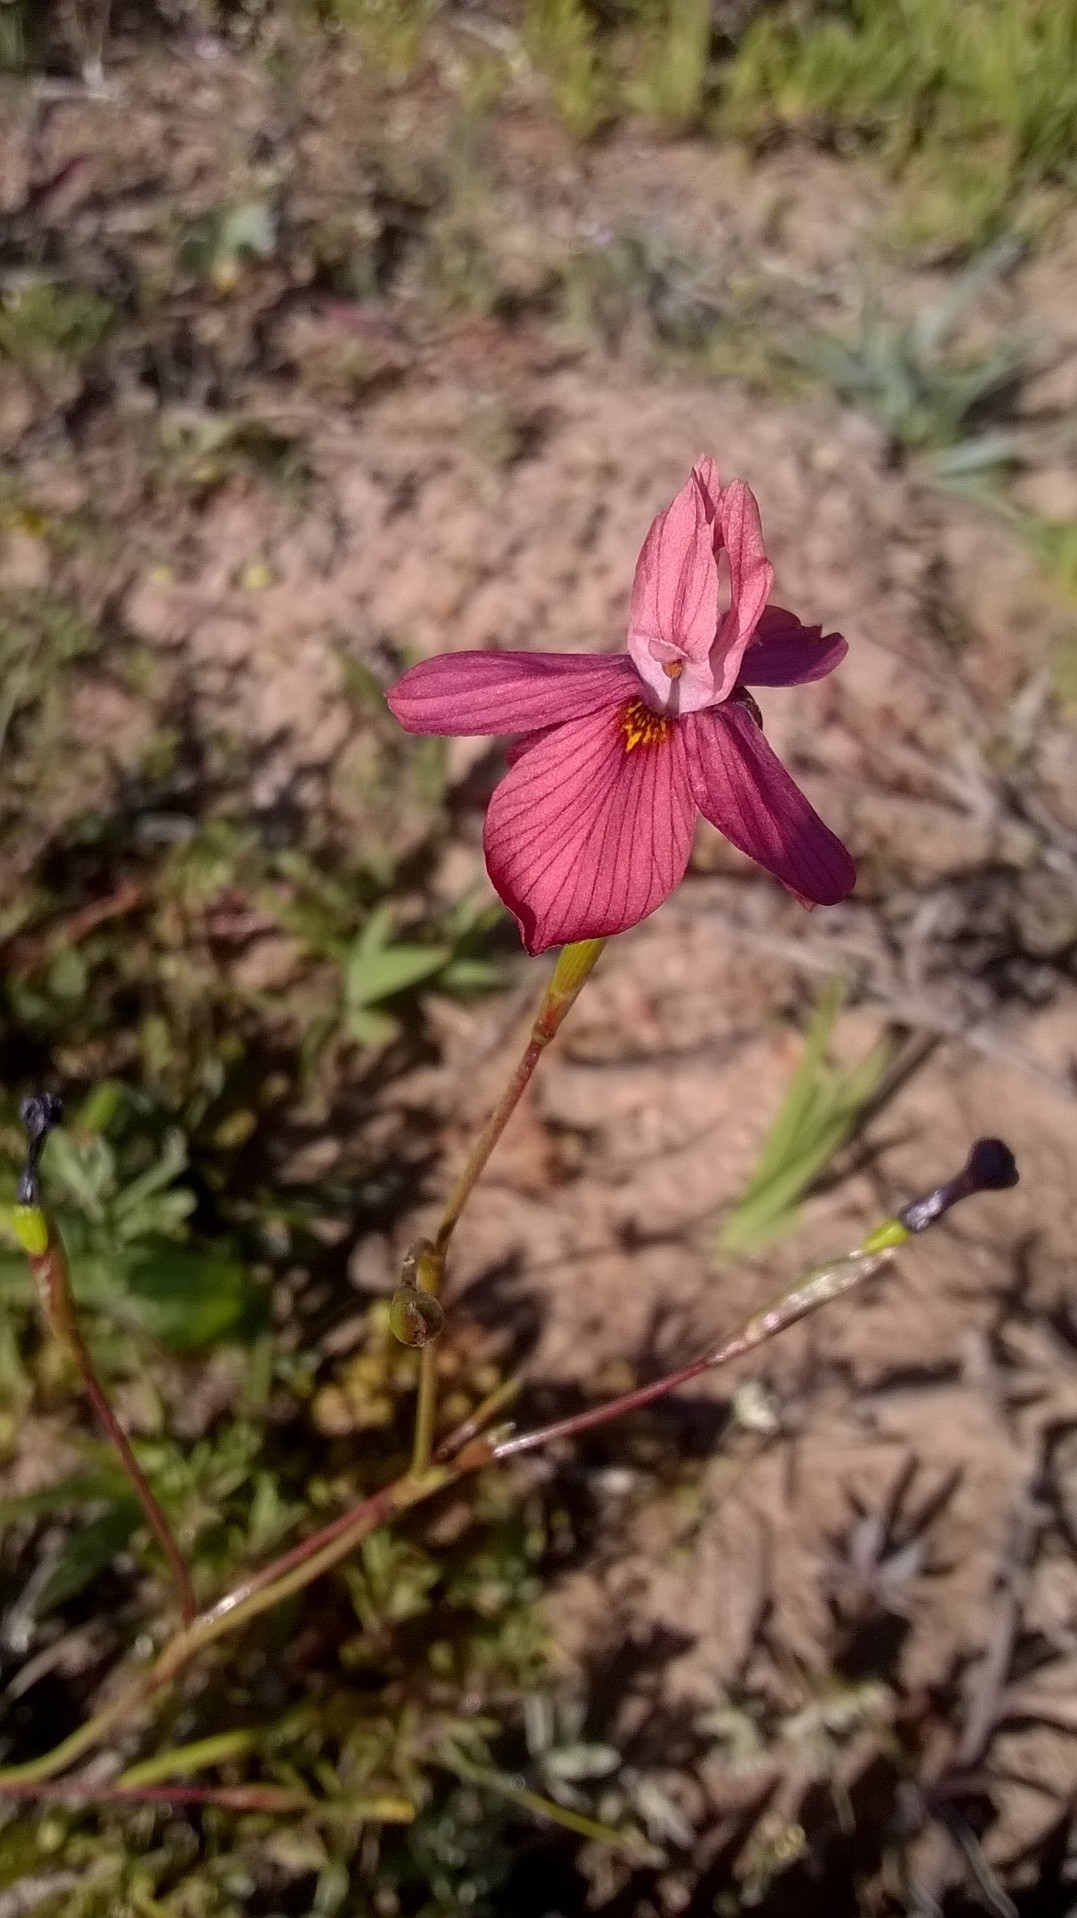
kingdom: Plantae
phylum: Tracheophyta
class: Liliopsida
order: Asparagales
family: Iridaceae
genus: Moraea
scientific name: Moraea gawleri
